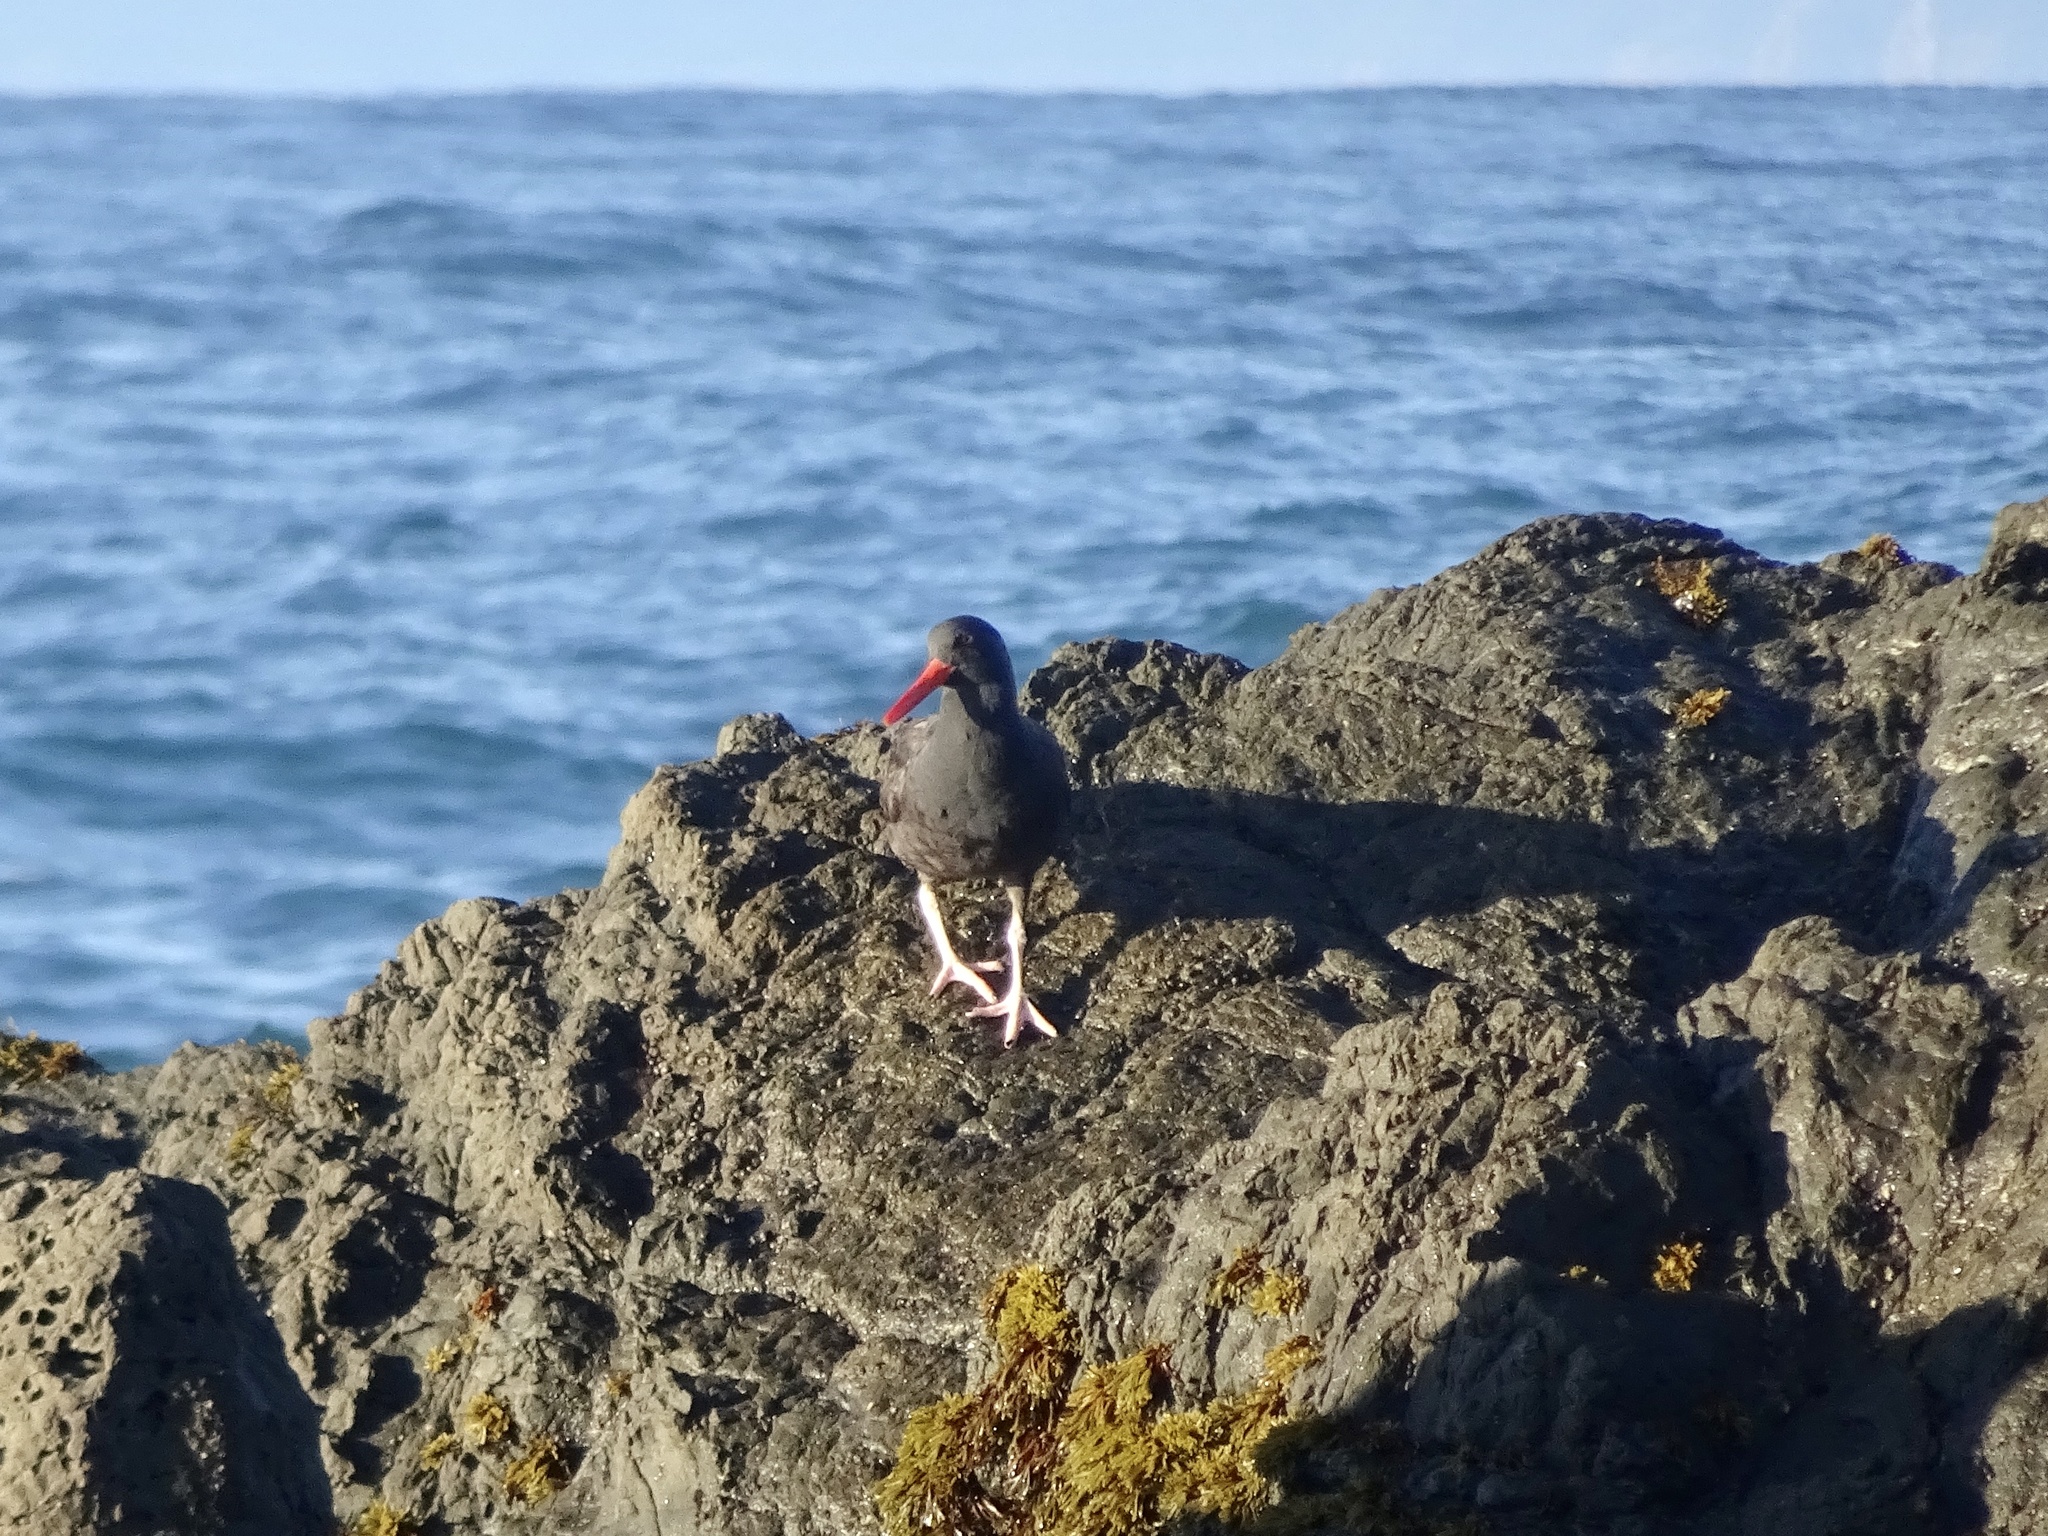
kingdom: Animalia
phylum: Chordata
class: Aves
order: Charadriiformes
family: Haematopodidae
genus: Haematopus
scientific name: Haematopus bachmani
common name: Black oystercatcher
